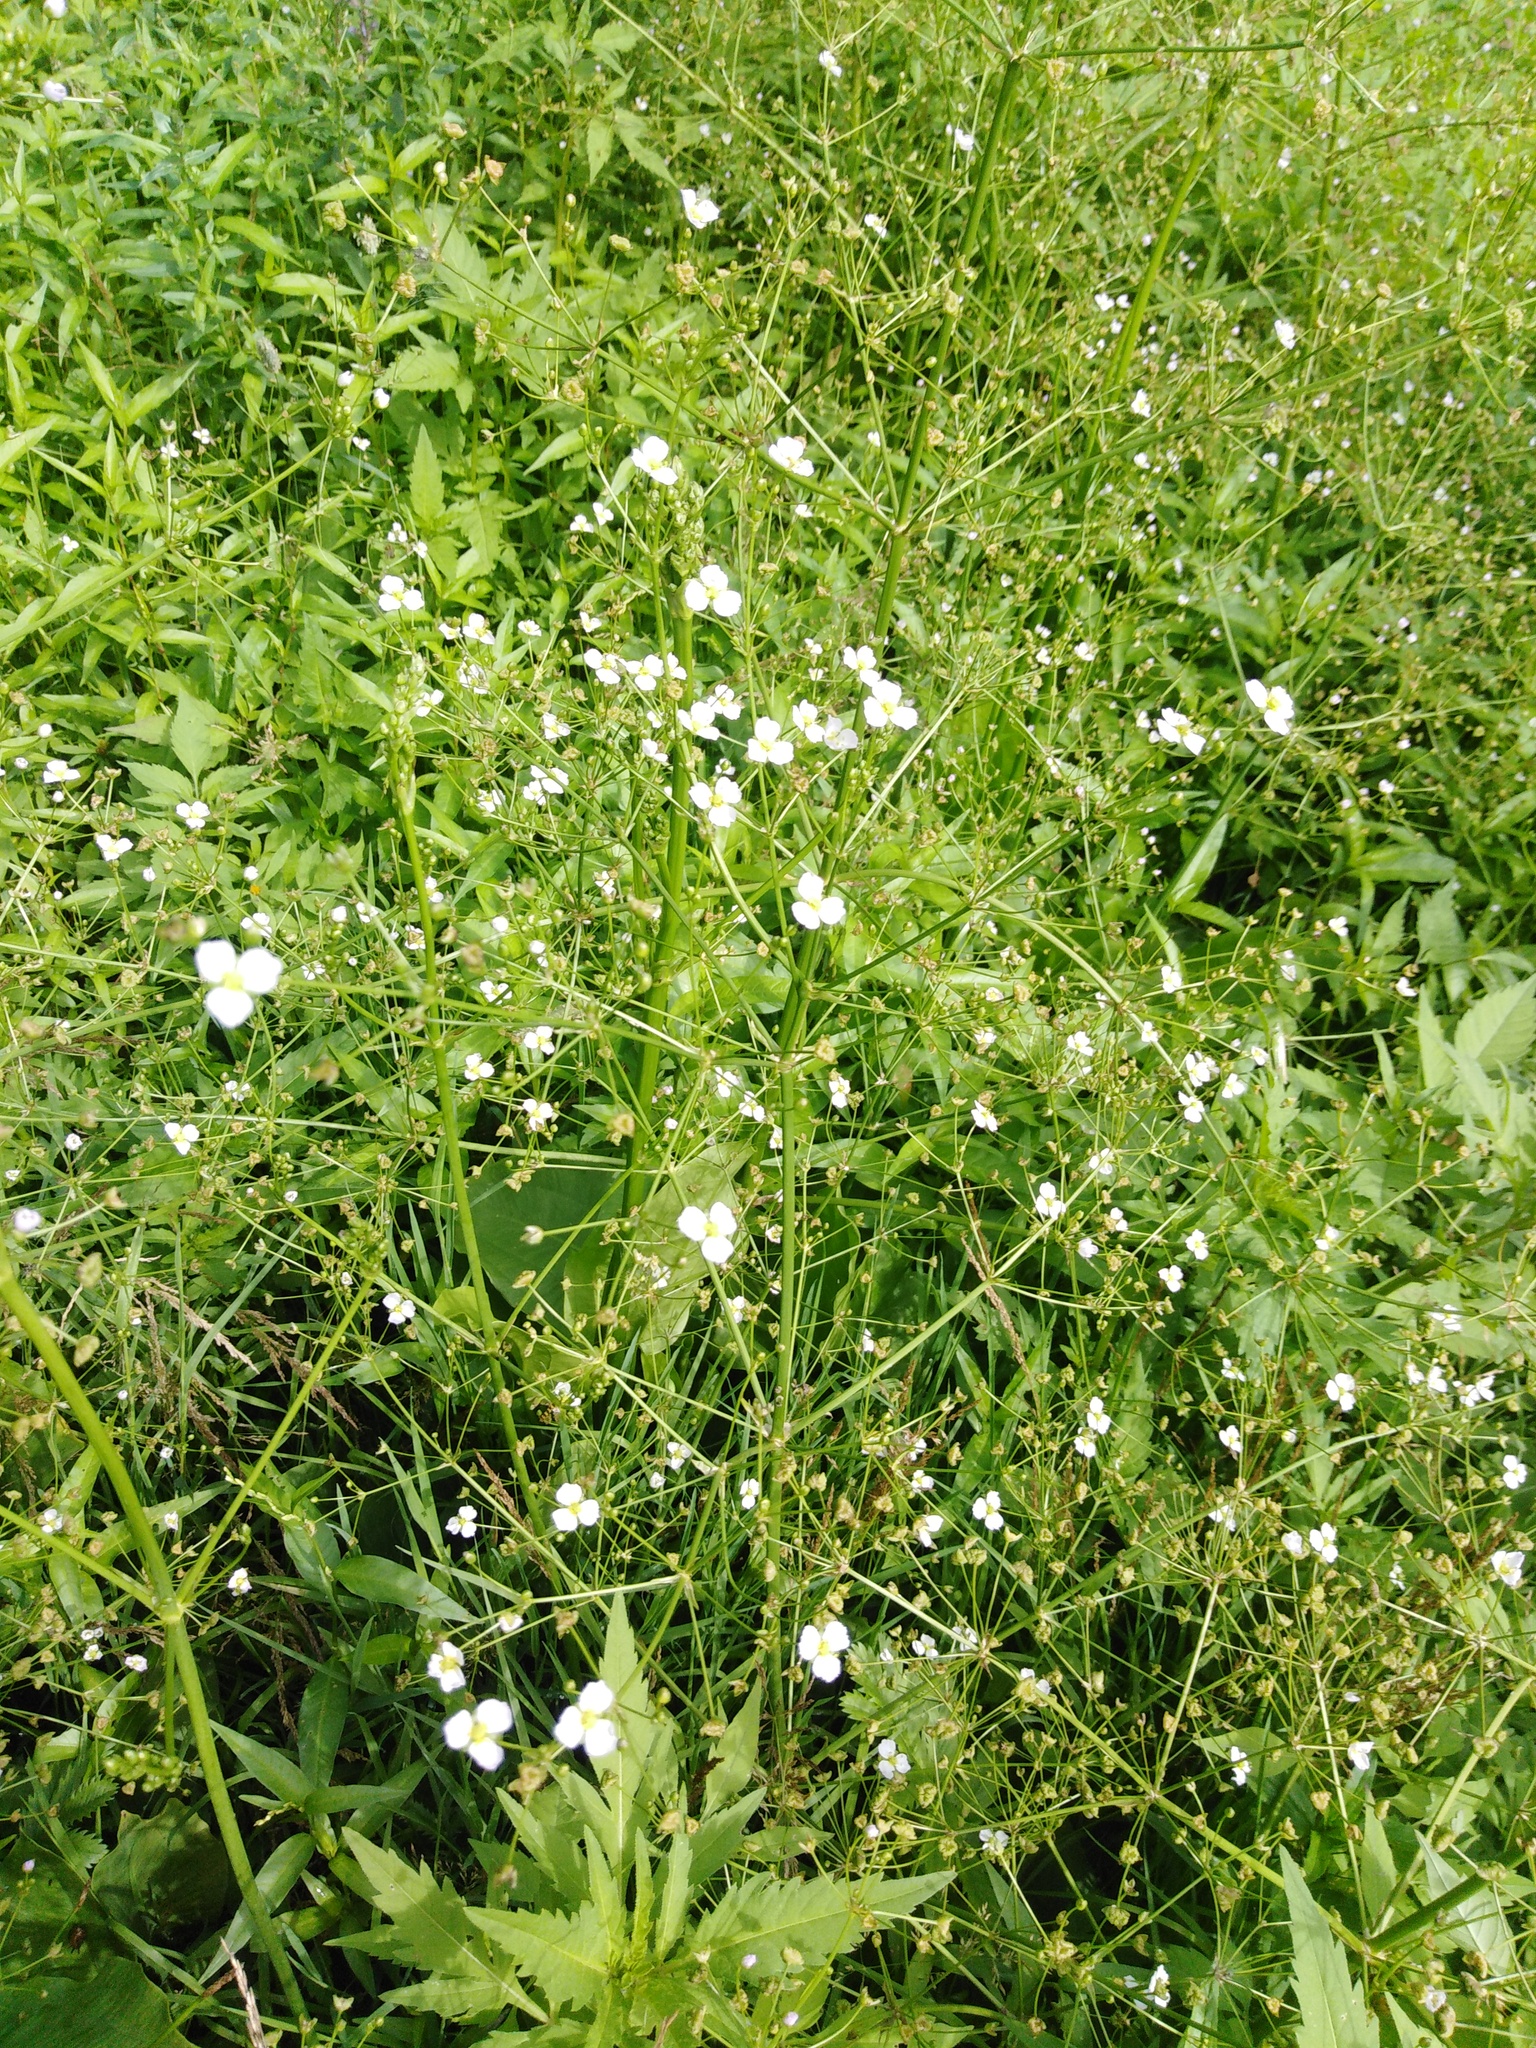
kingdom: Plantae
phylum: Tracheophyta
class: Liliopsida
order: Alismatales
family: Alismataceae
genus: Alisma
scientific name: Alisma plantago-aquatica
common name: Water-plantain
